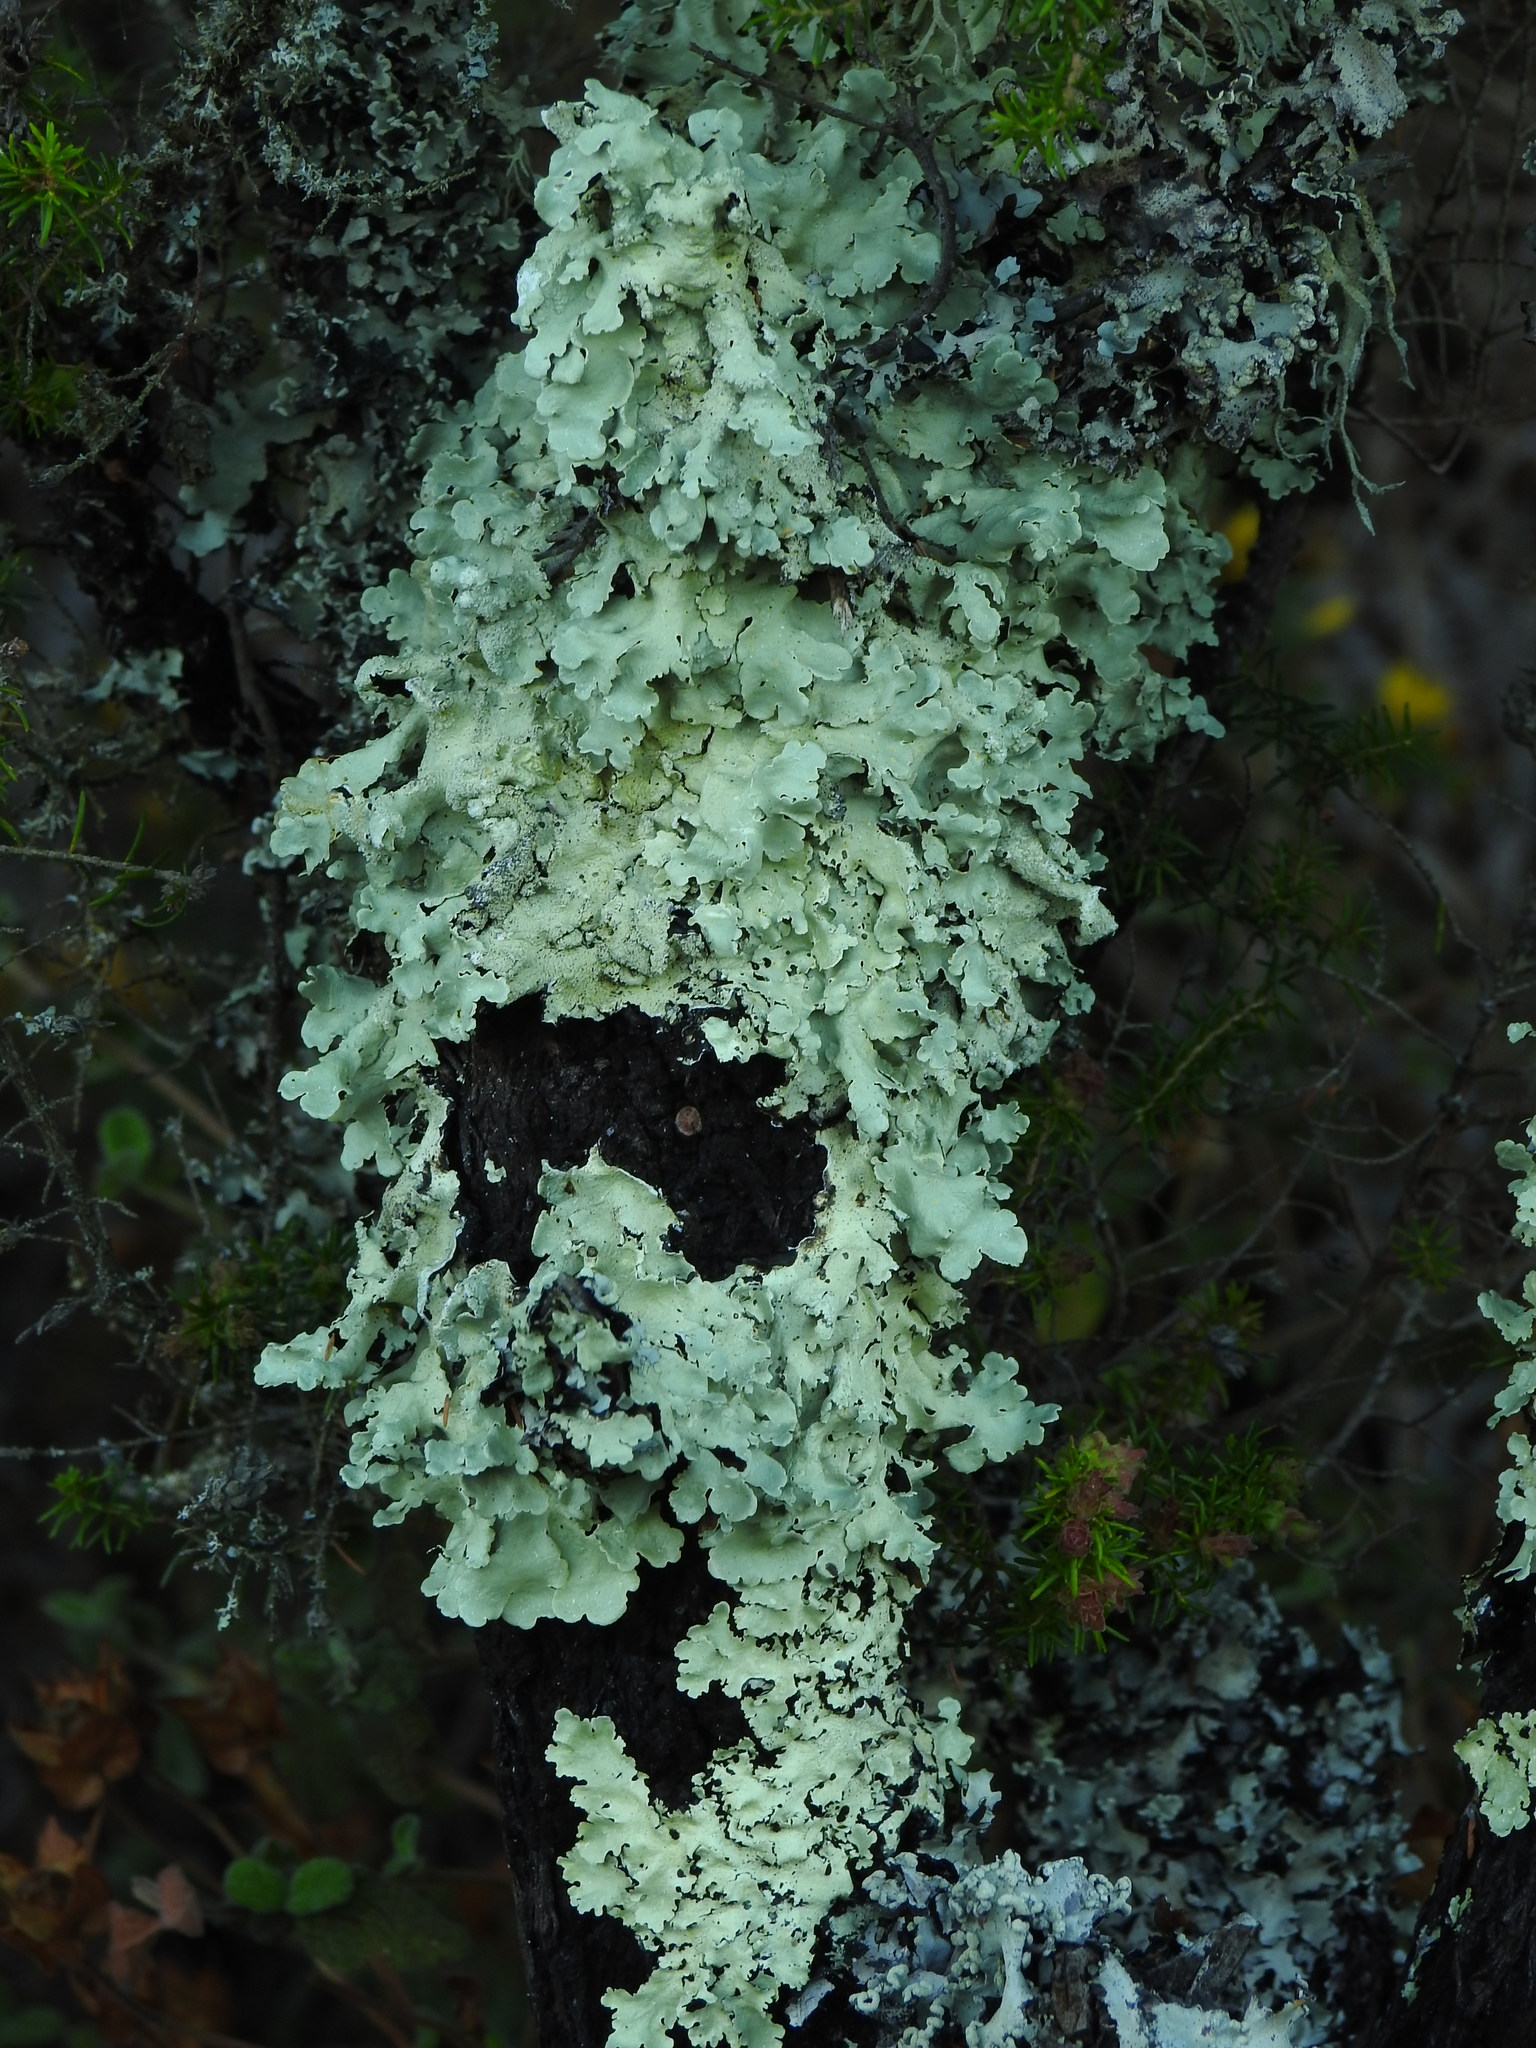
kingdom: Fungi
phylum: Ascomycota
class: Lecanoromycetes
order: Lecanorales
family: Parmeliaceae
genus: Flavoparmelia
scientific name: Flavoparmelia caperata
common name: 40-mile per hour lichen
